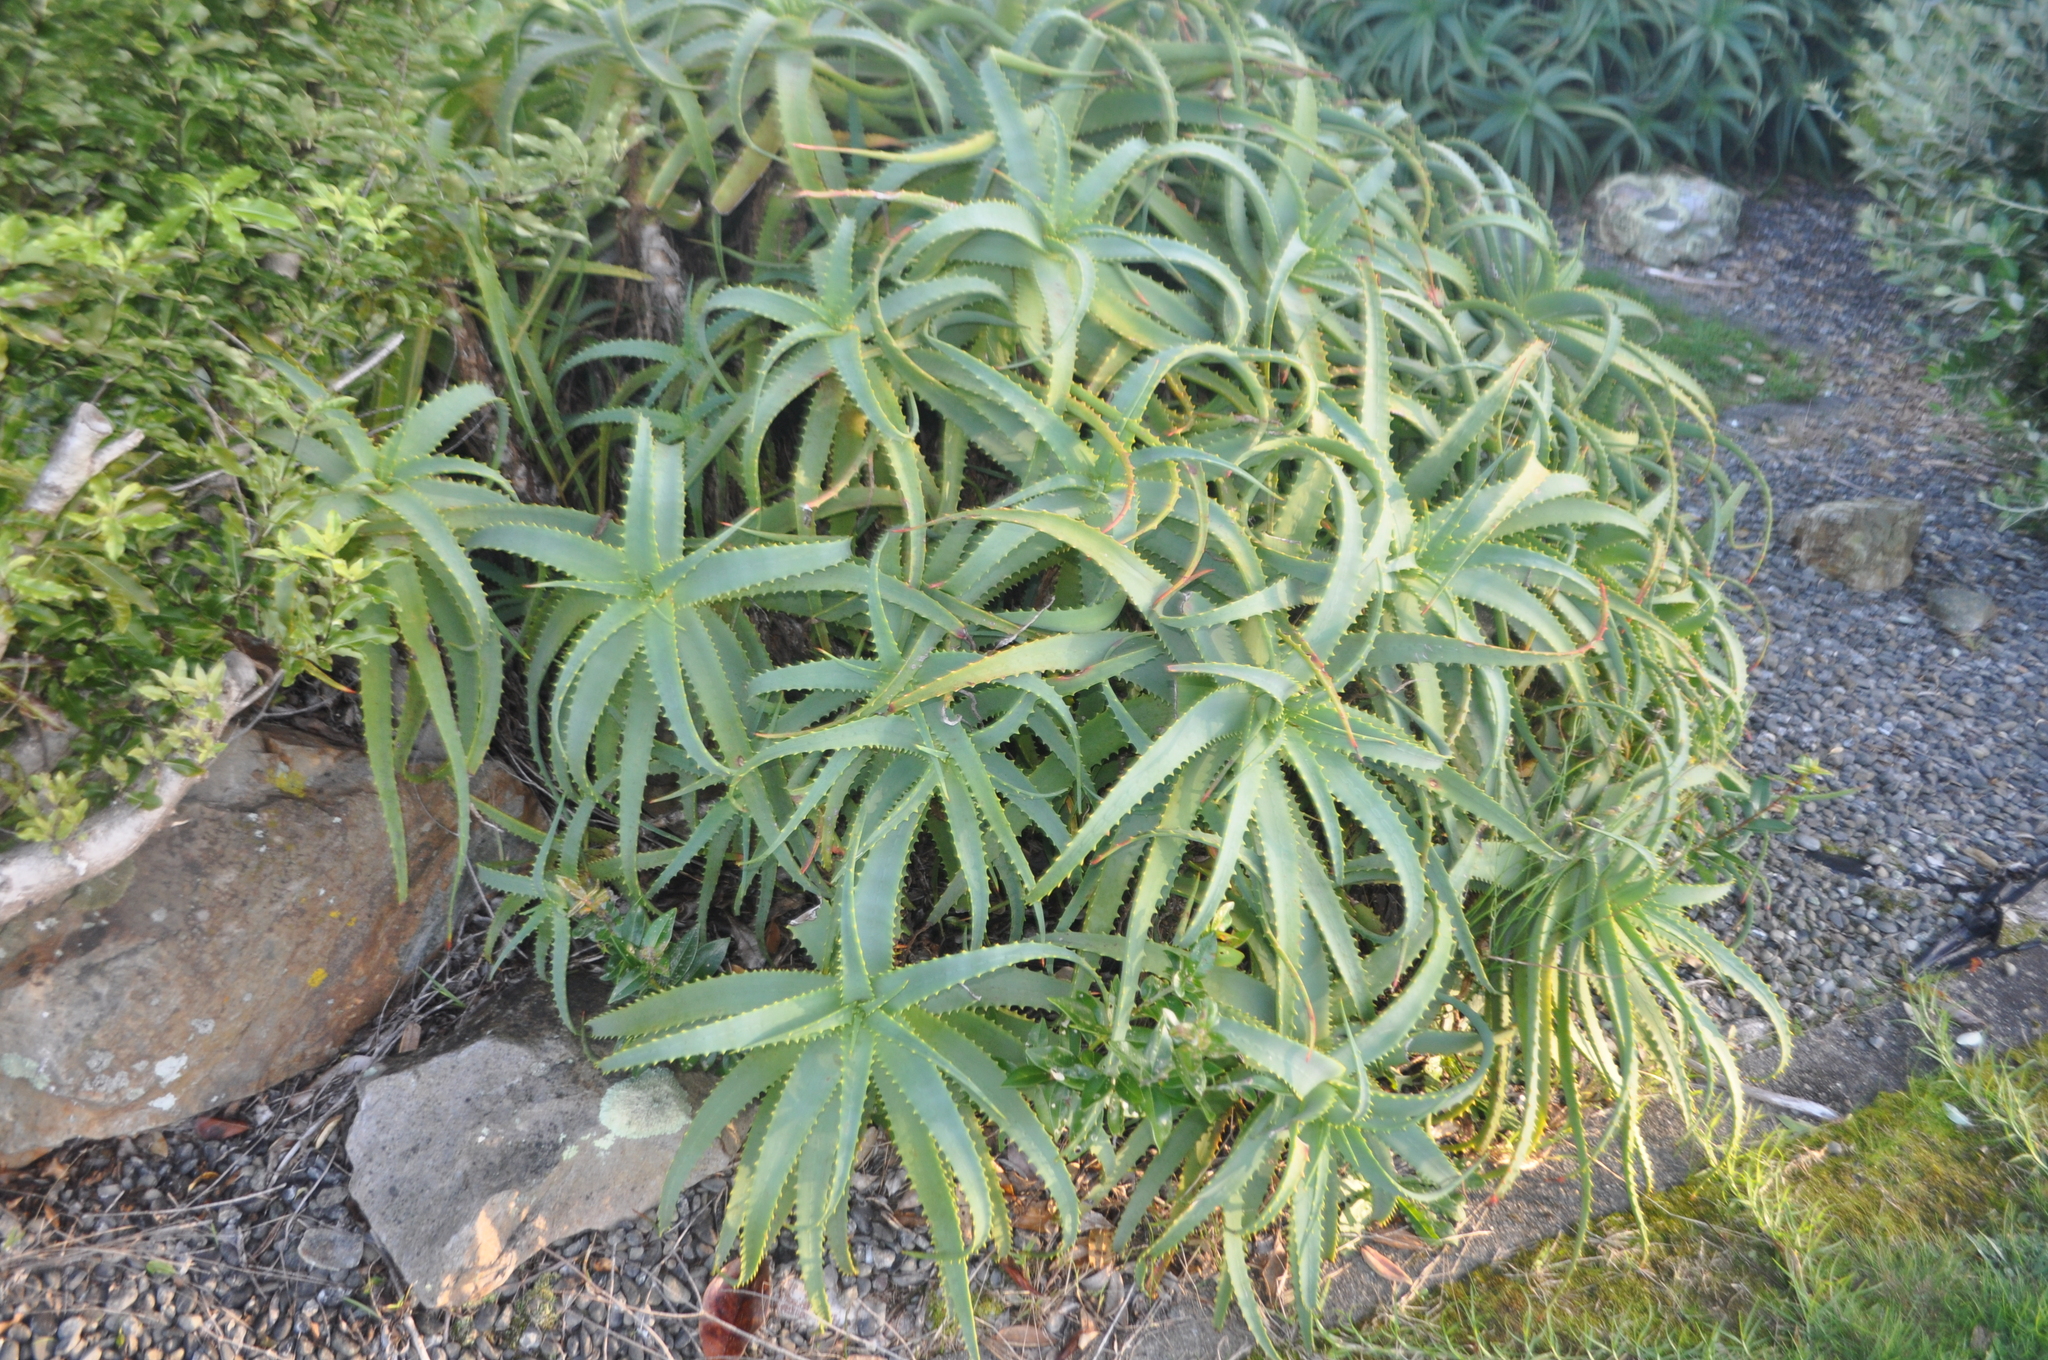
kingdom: Plantae
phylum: Tracheophyta
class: Liliopsida
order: Asparagales
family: Asphodelaceae
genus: Aloe
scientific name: Aloe arborescens
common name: Candelabra aloe
